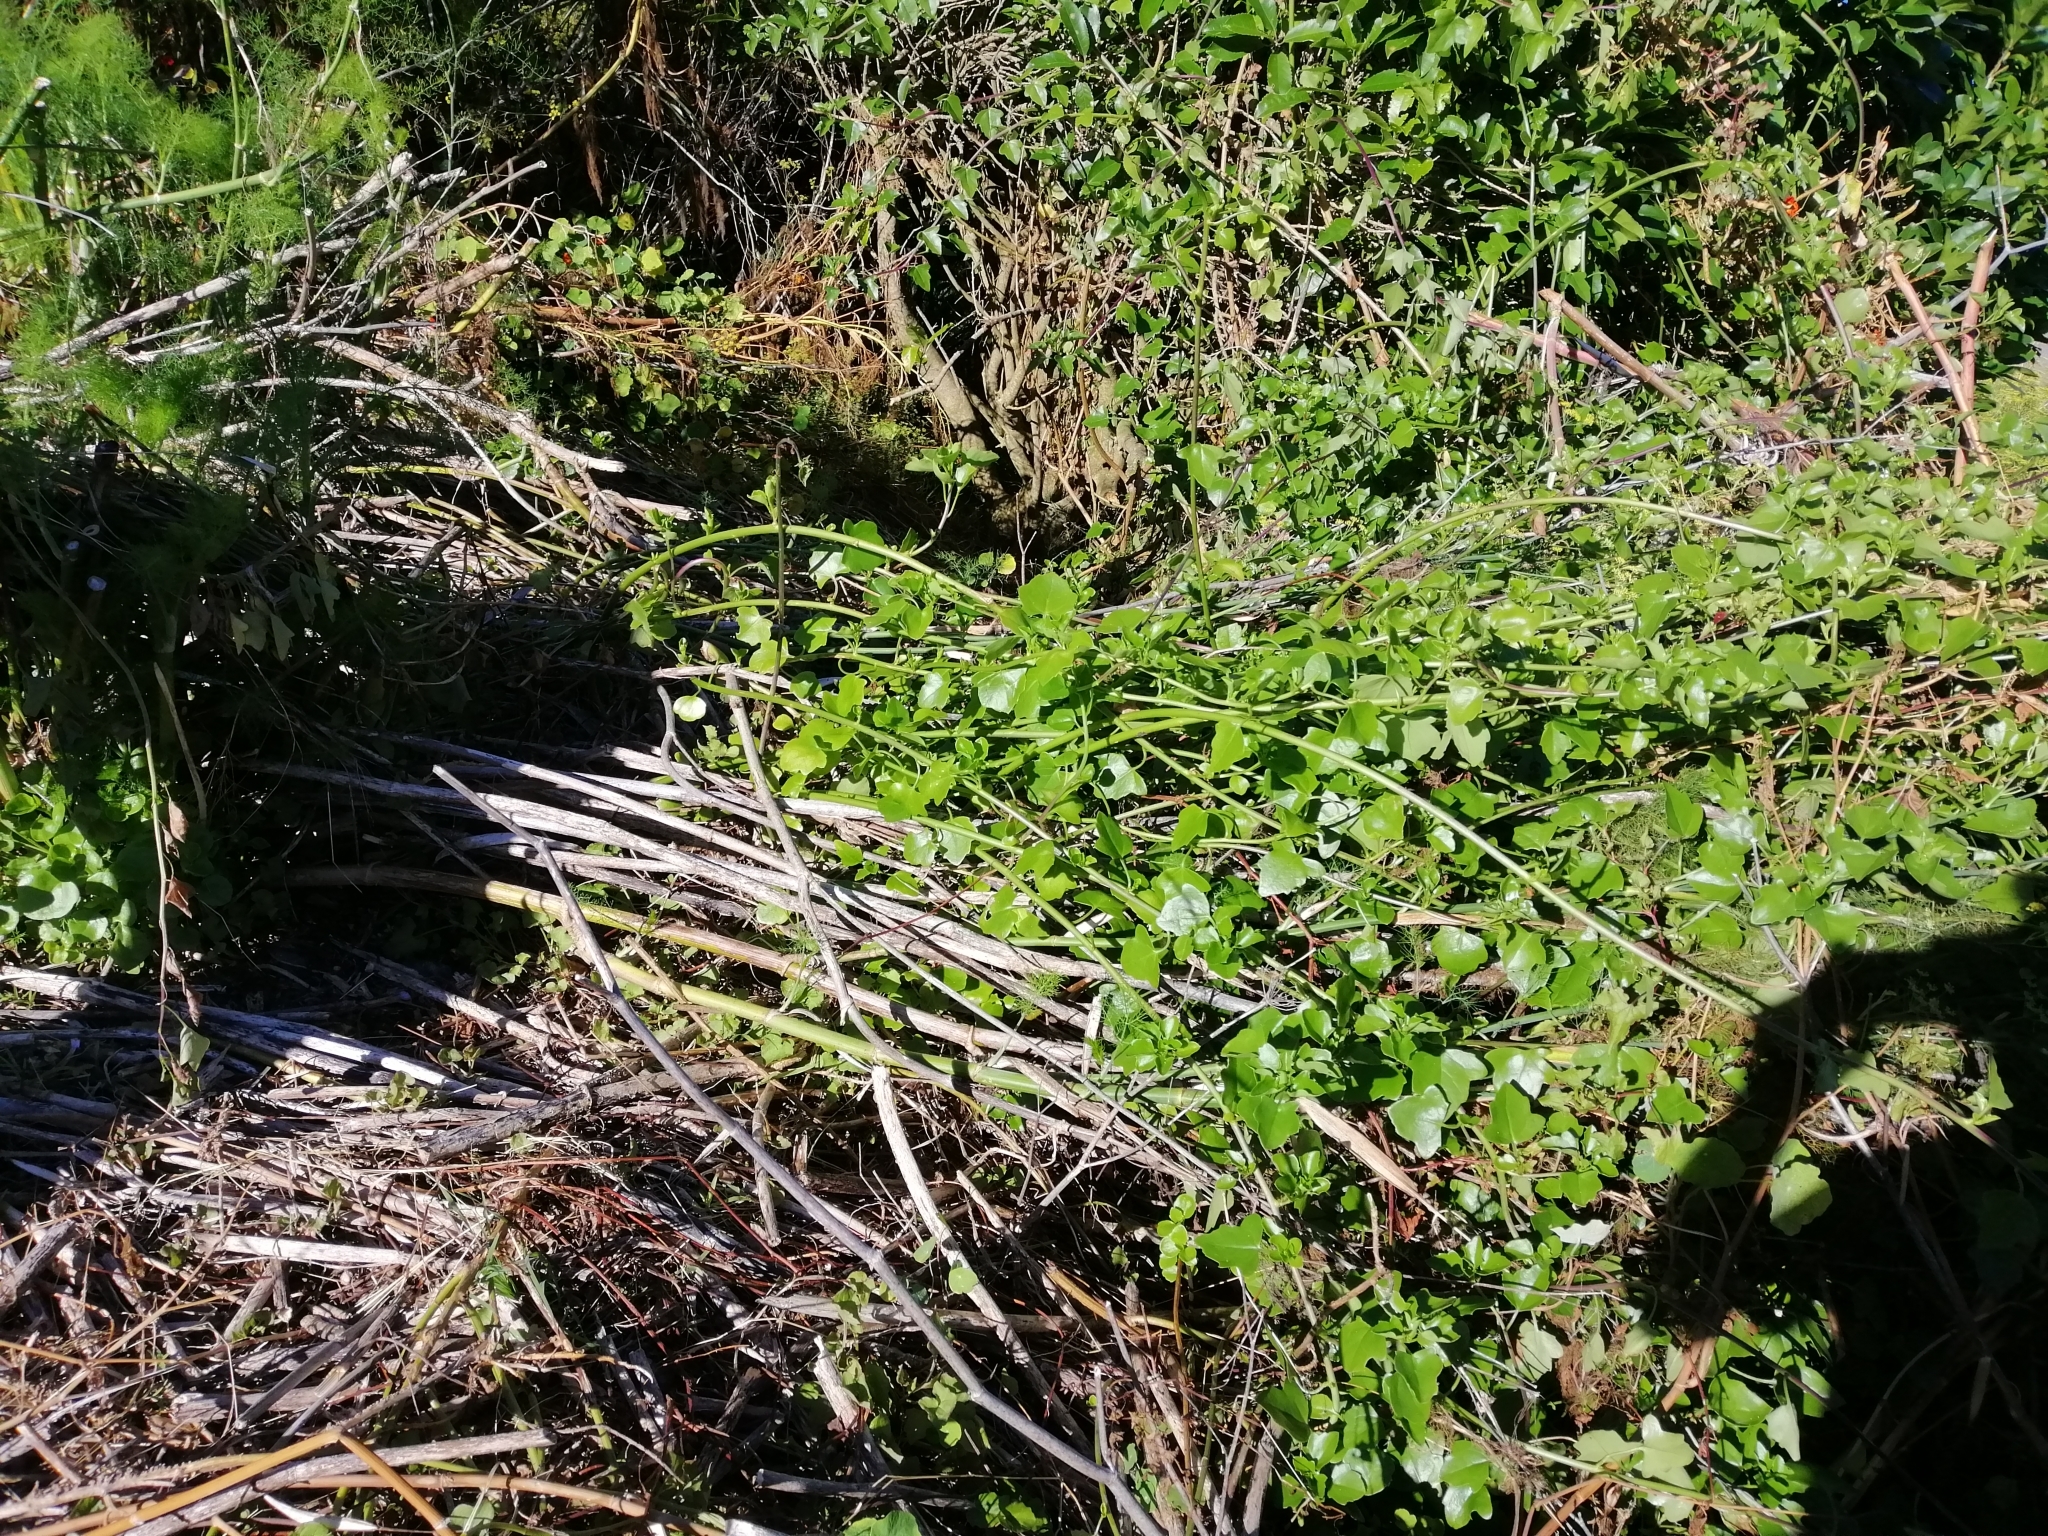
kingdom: Plantae
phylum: Tracheophyta
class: Magnoliopsida
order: Asterales
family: Asteraceae
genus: Senecio
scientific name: Senecio angulatus
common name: Climbing groundsel
